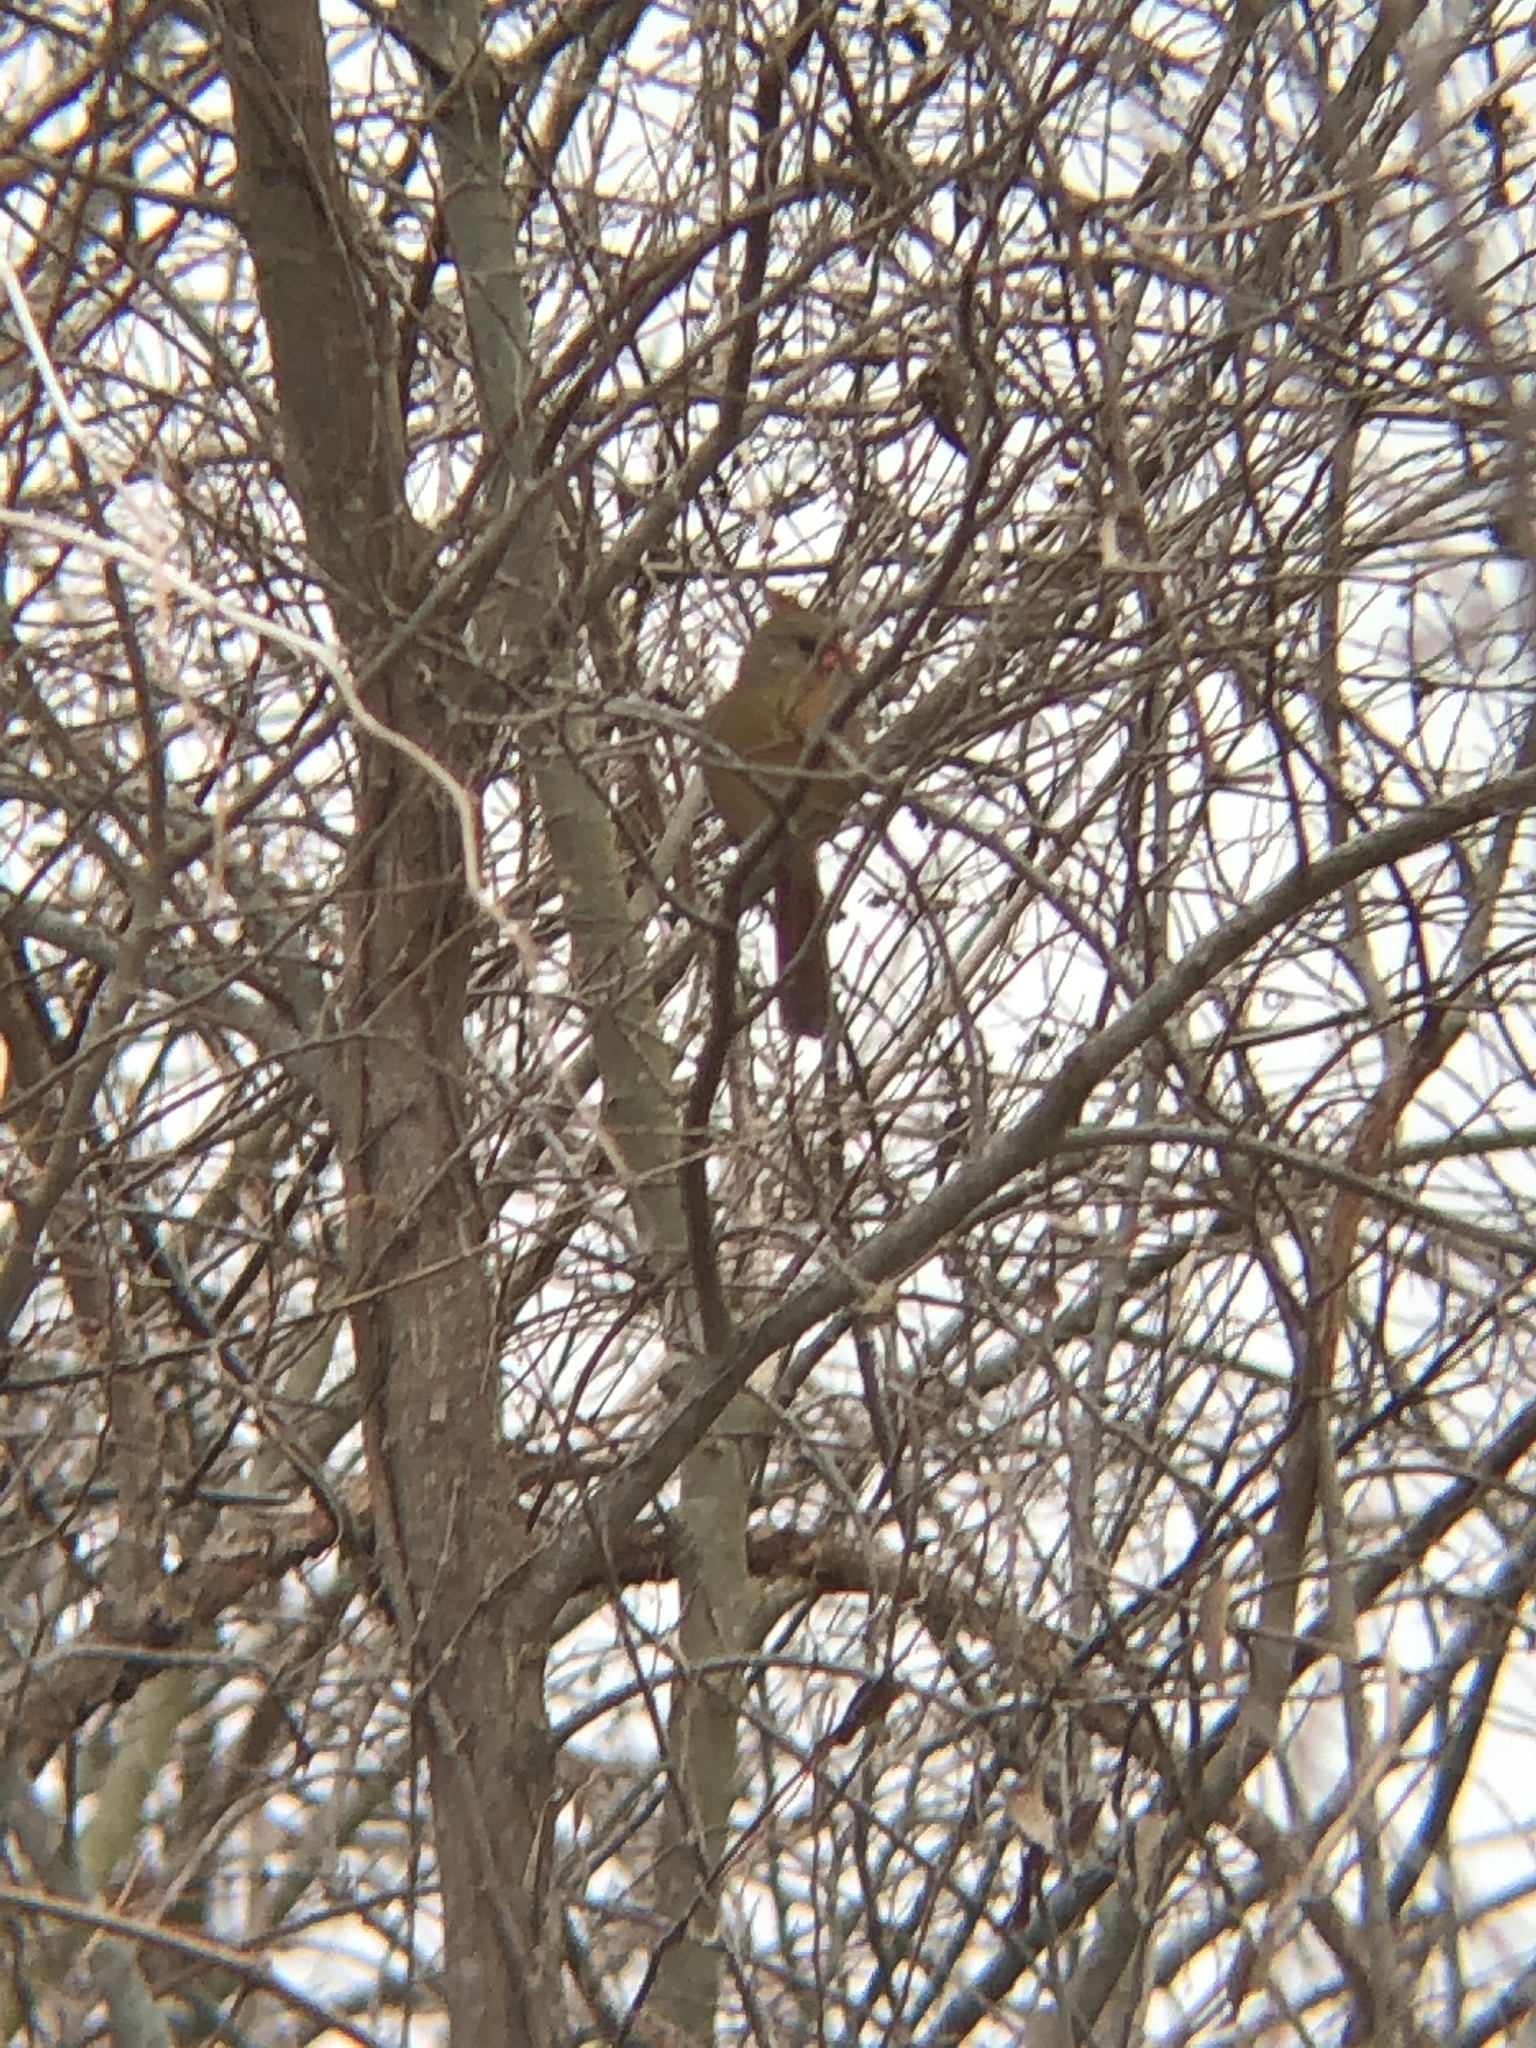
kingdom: Animalia
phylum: Chordata
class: Aves
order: Passeriformes
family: Cardinalidae
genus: Cardinalis
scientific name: Cardinalis cardinalis
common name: Northern cardinal
